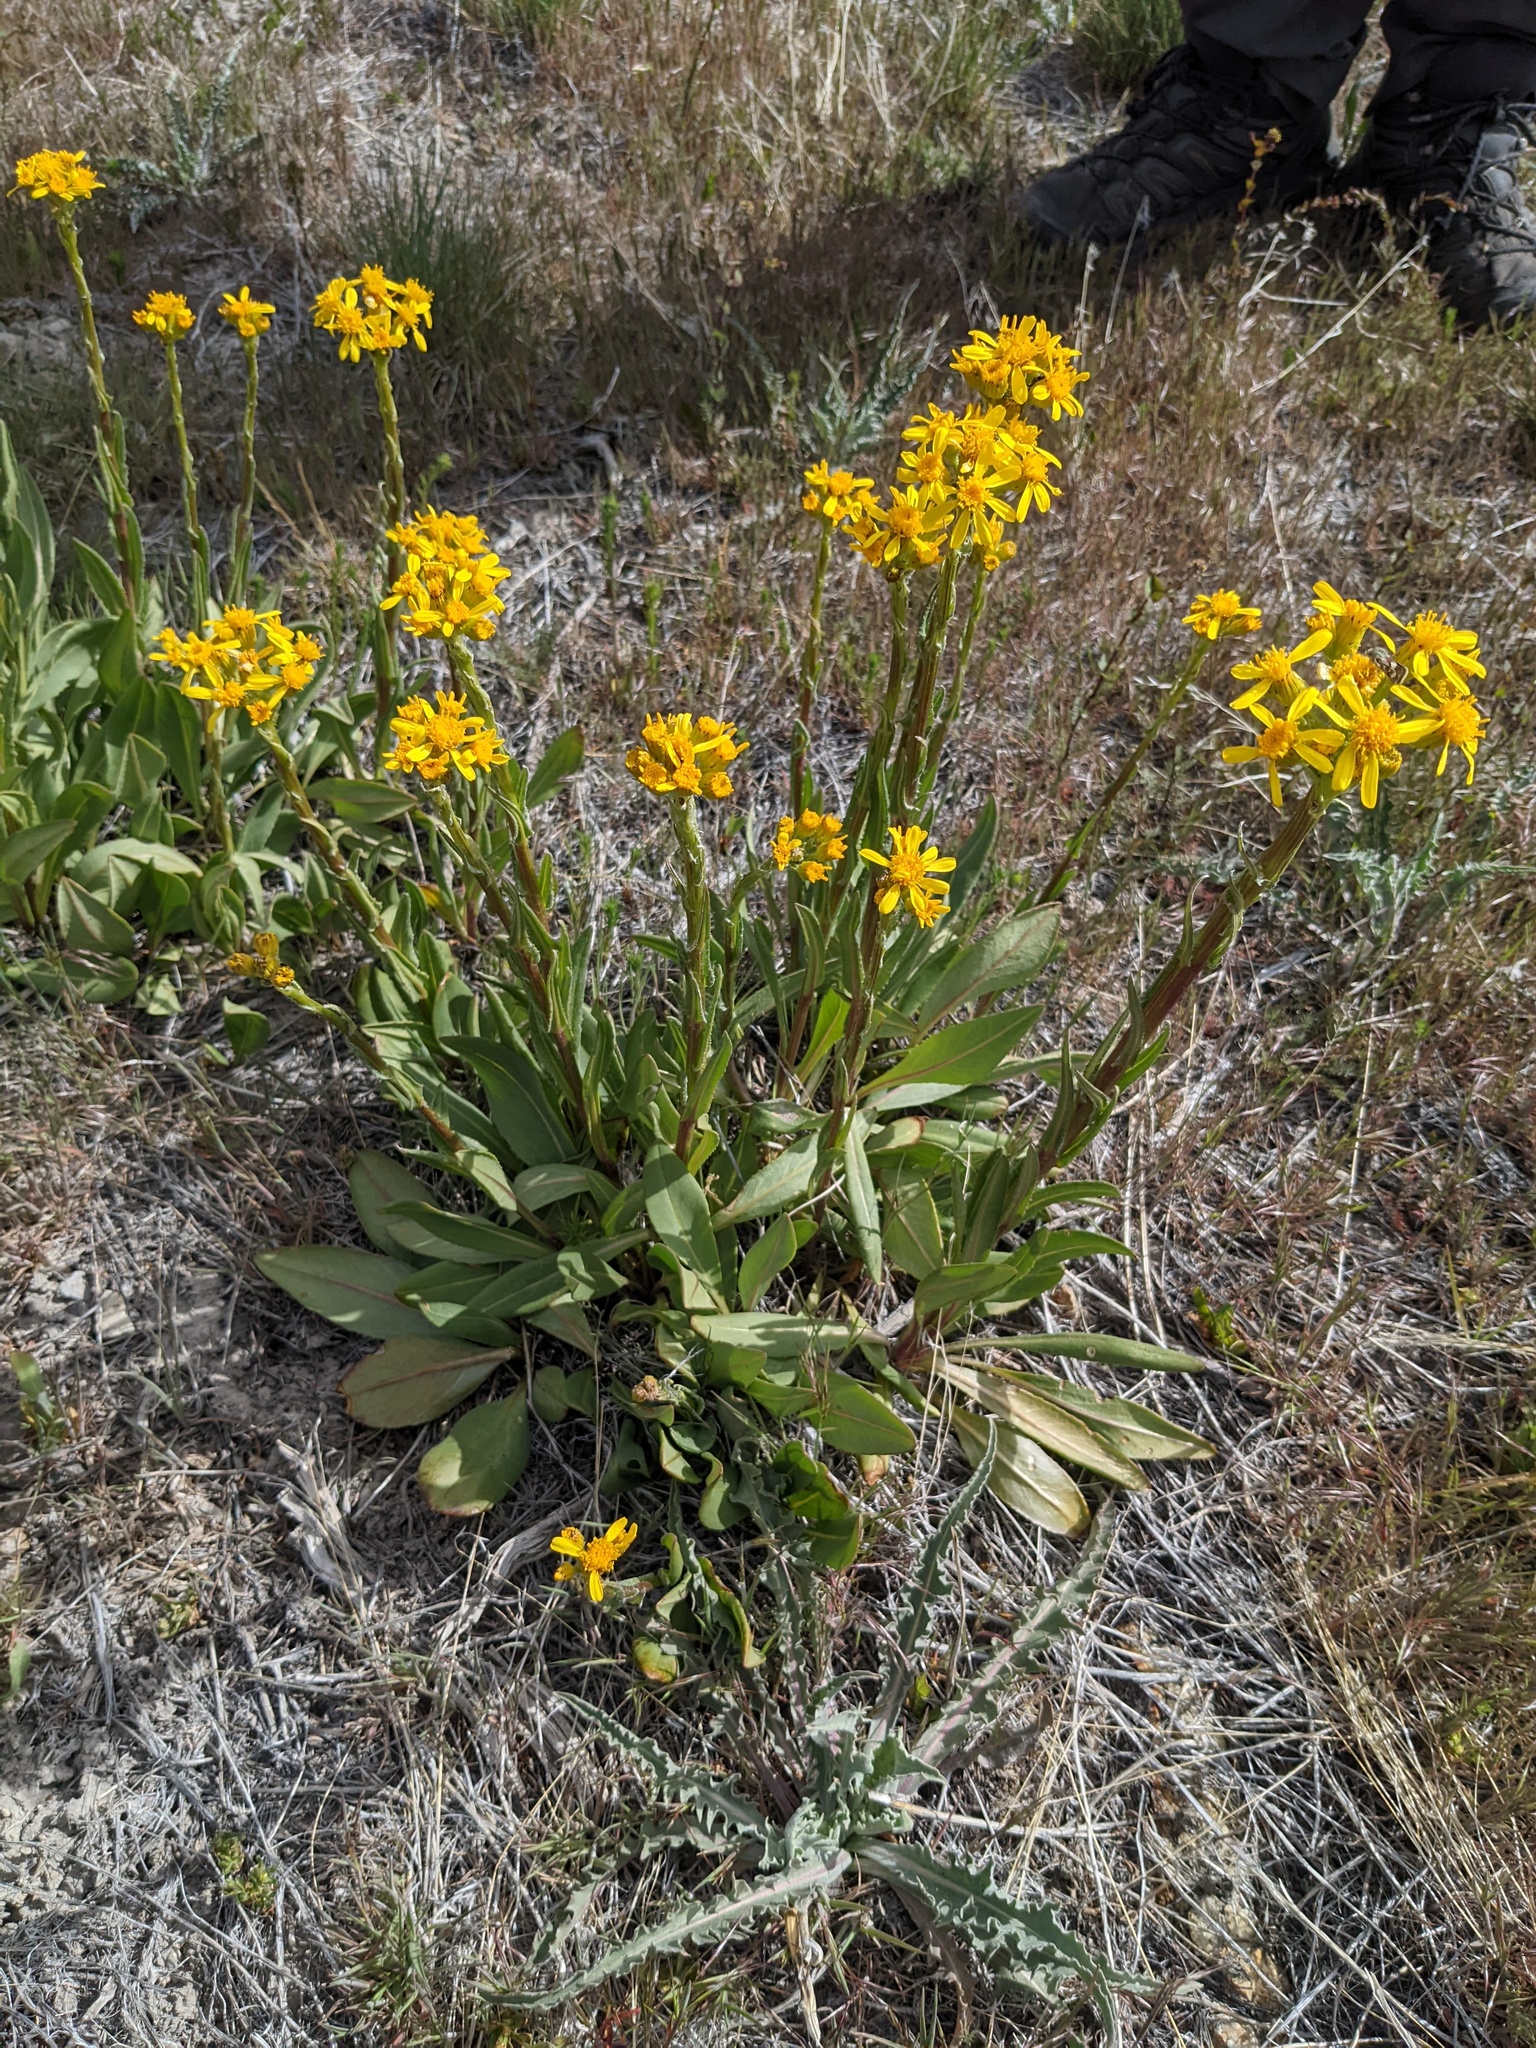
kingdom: Plantae
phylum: Tracheophyta
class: Magnoliopsida
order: Asterales
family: Asteraceae
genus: Senecio
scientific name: Senecio integerrimus
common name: Gaugeplant
